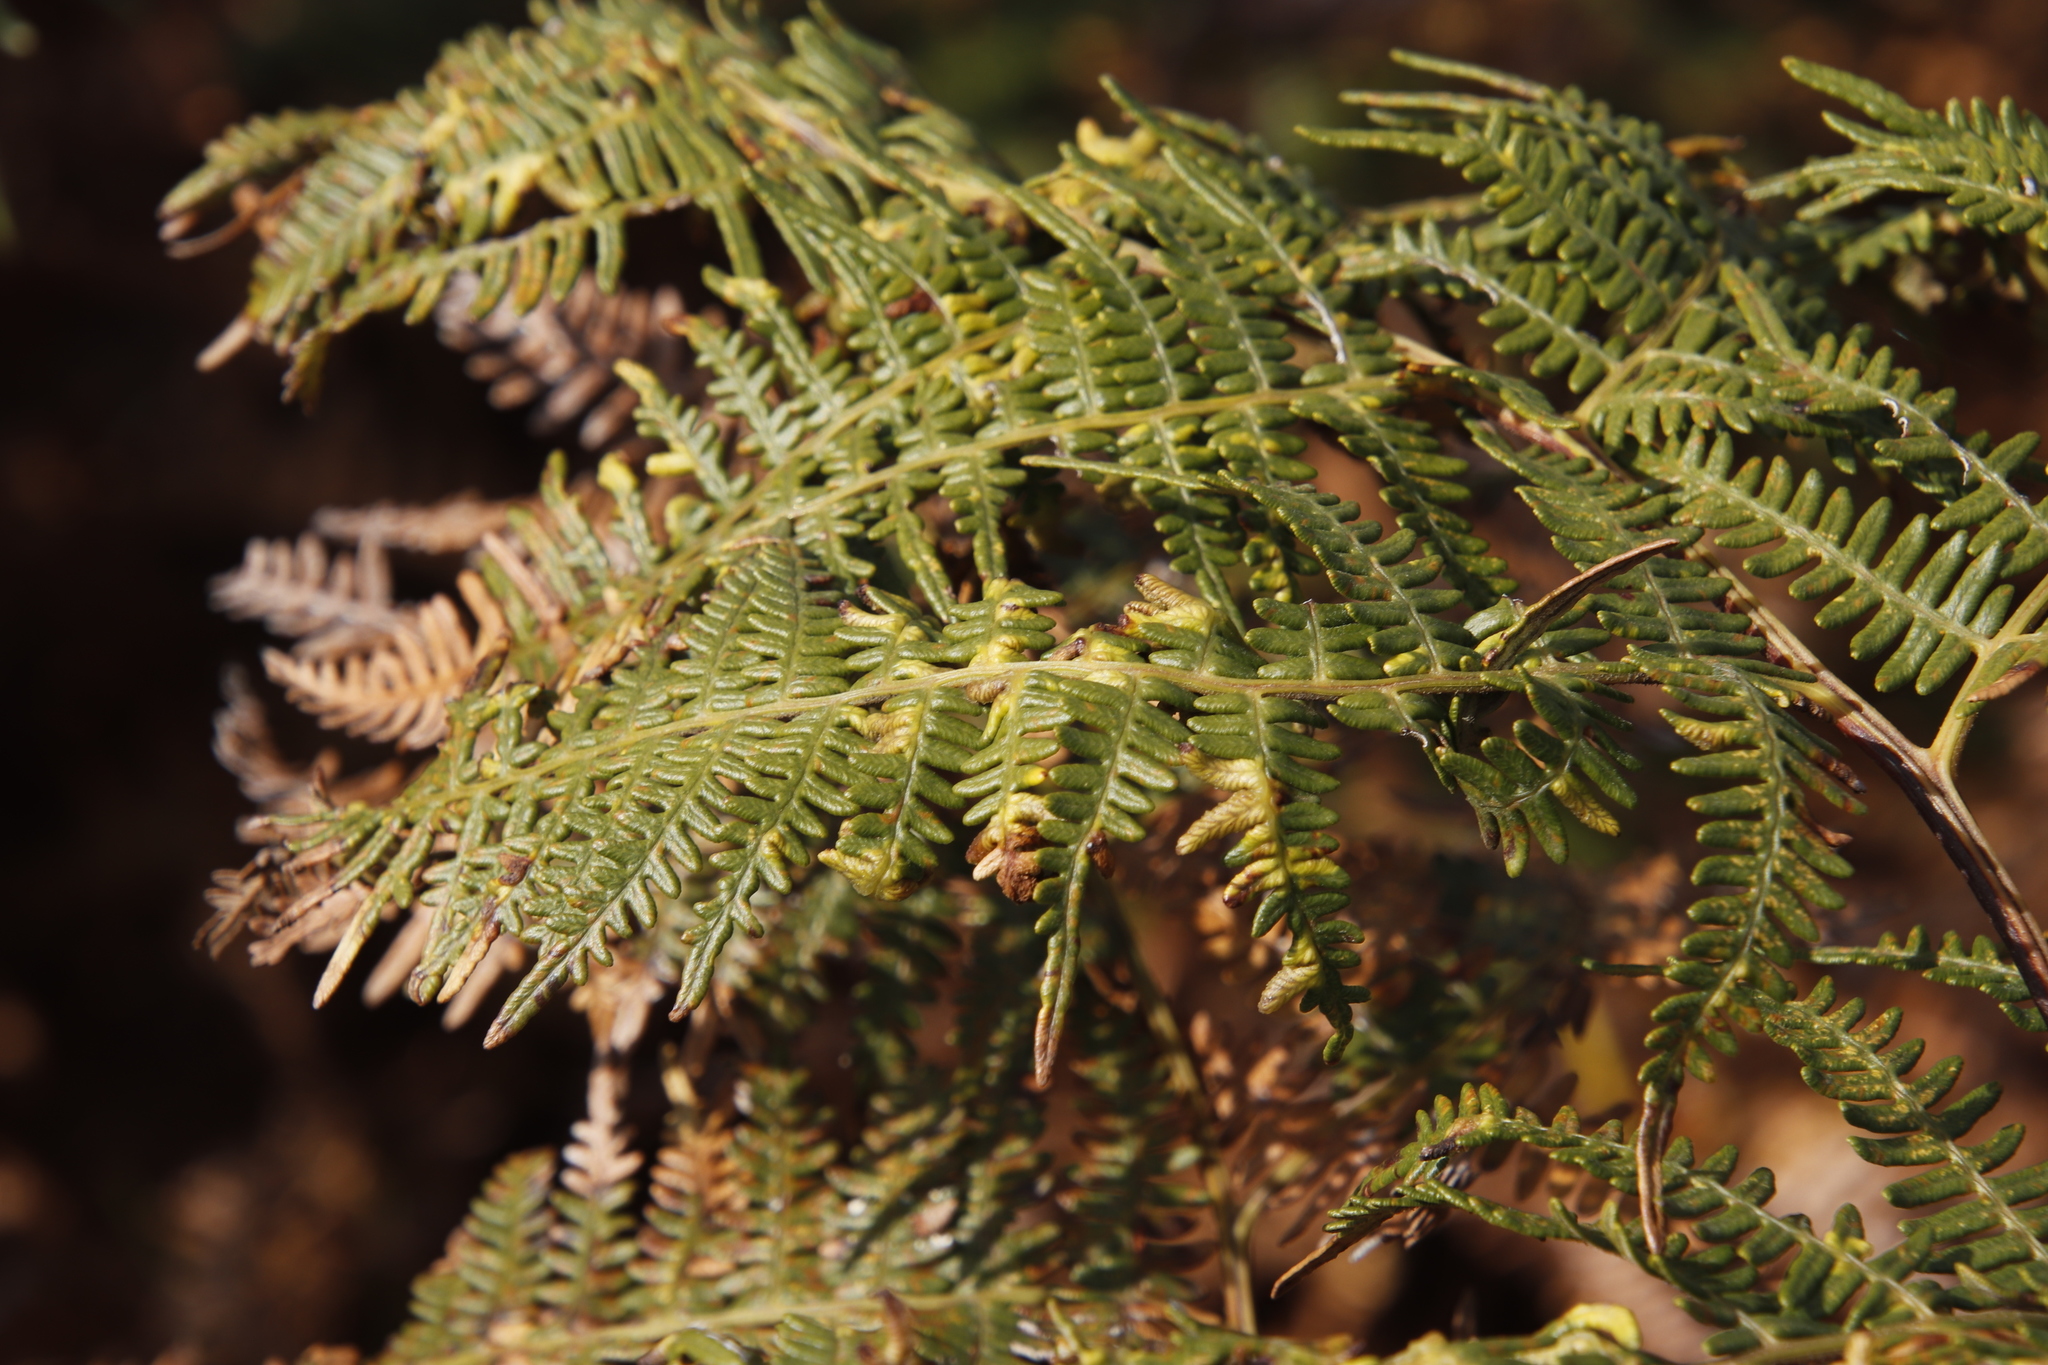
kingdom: Animalia
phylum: Arthropoda
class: Arachnida
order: Trombidiformes
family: Eriophyidae
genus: Eriophyes
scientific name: Eriophyes
